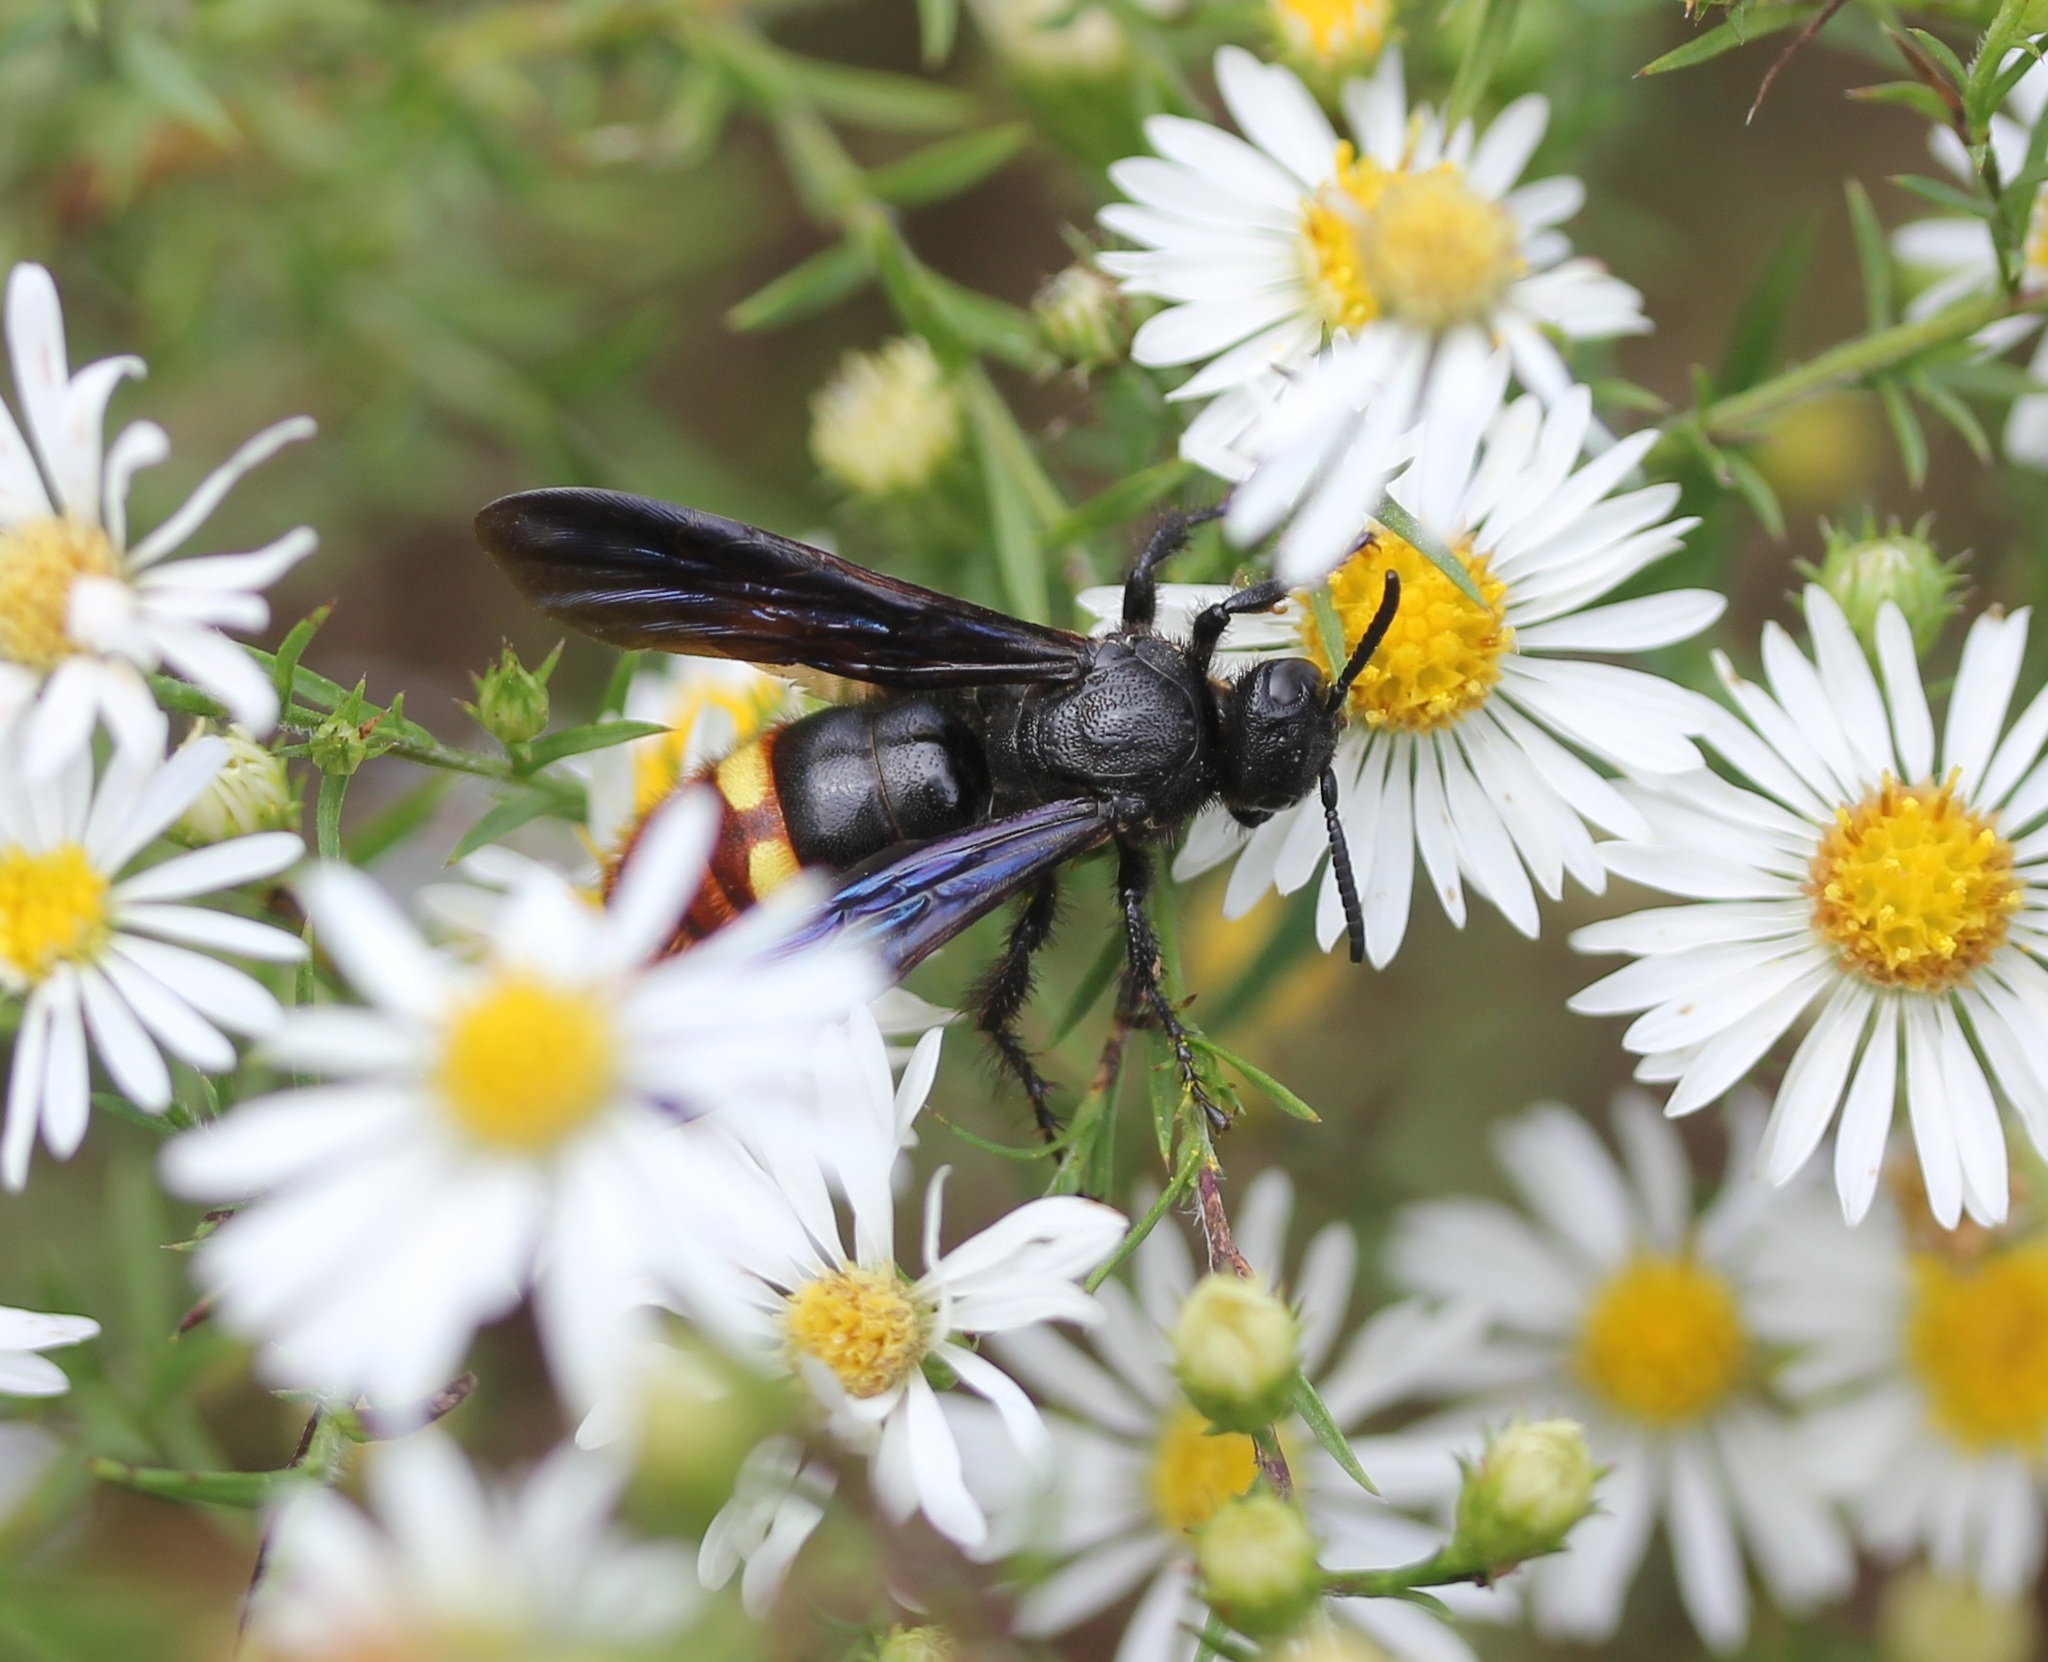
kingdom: Animalia
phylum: Arthropoda
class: Insecta
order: Hymenoptera
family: Scoliidae
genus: Scolia
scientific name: Scolia dubia
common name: Blue-winged scoliid wasp
